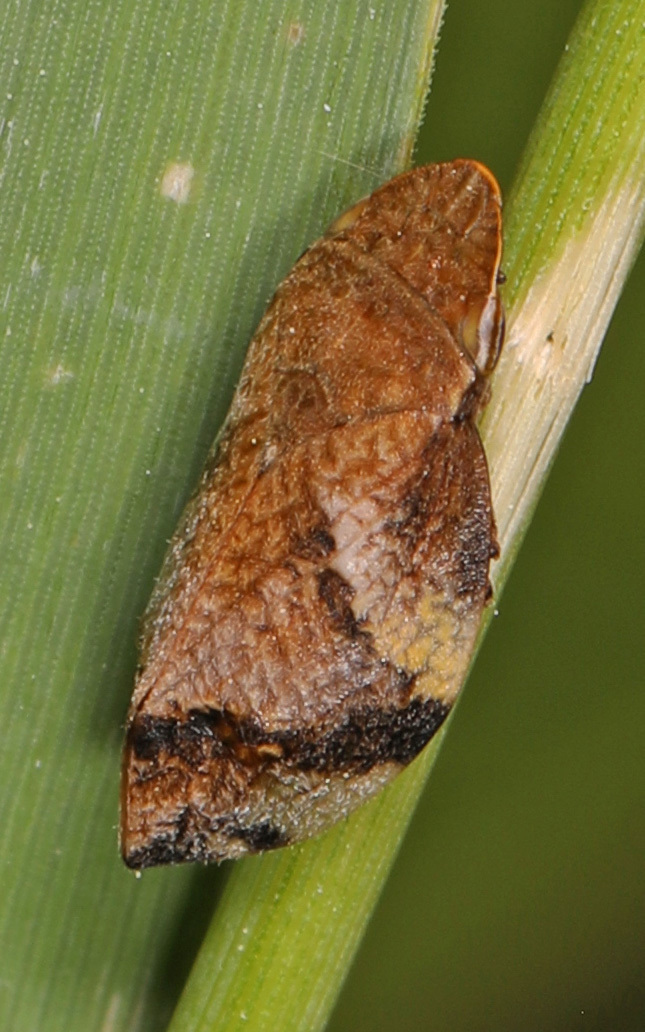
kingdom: Animalia
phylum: Arthropoda
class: Insecta
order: Hemiptera
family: Aphrophoridae
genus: Lepyronia
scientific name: Lepyronia quadrangularis
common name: Diamond-backed spittlebug
